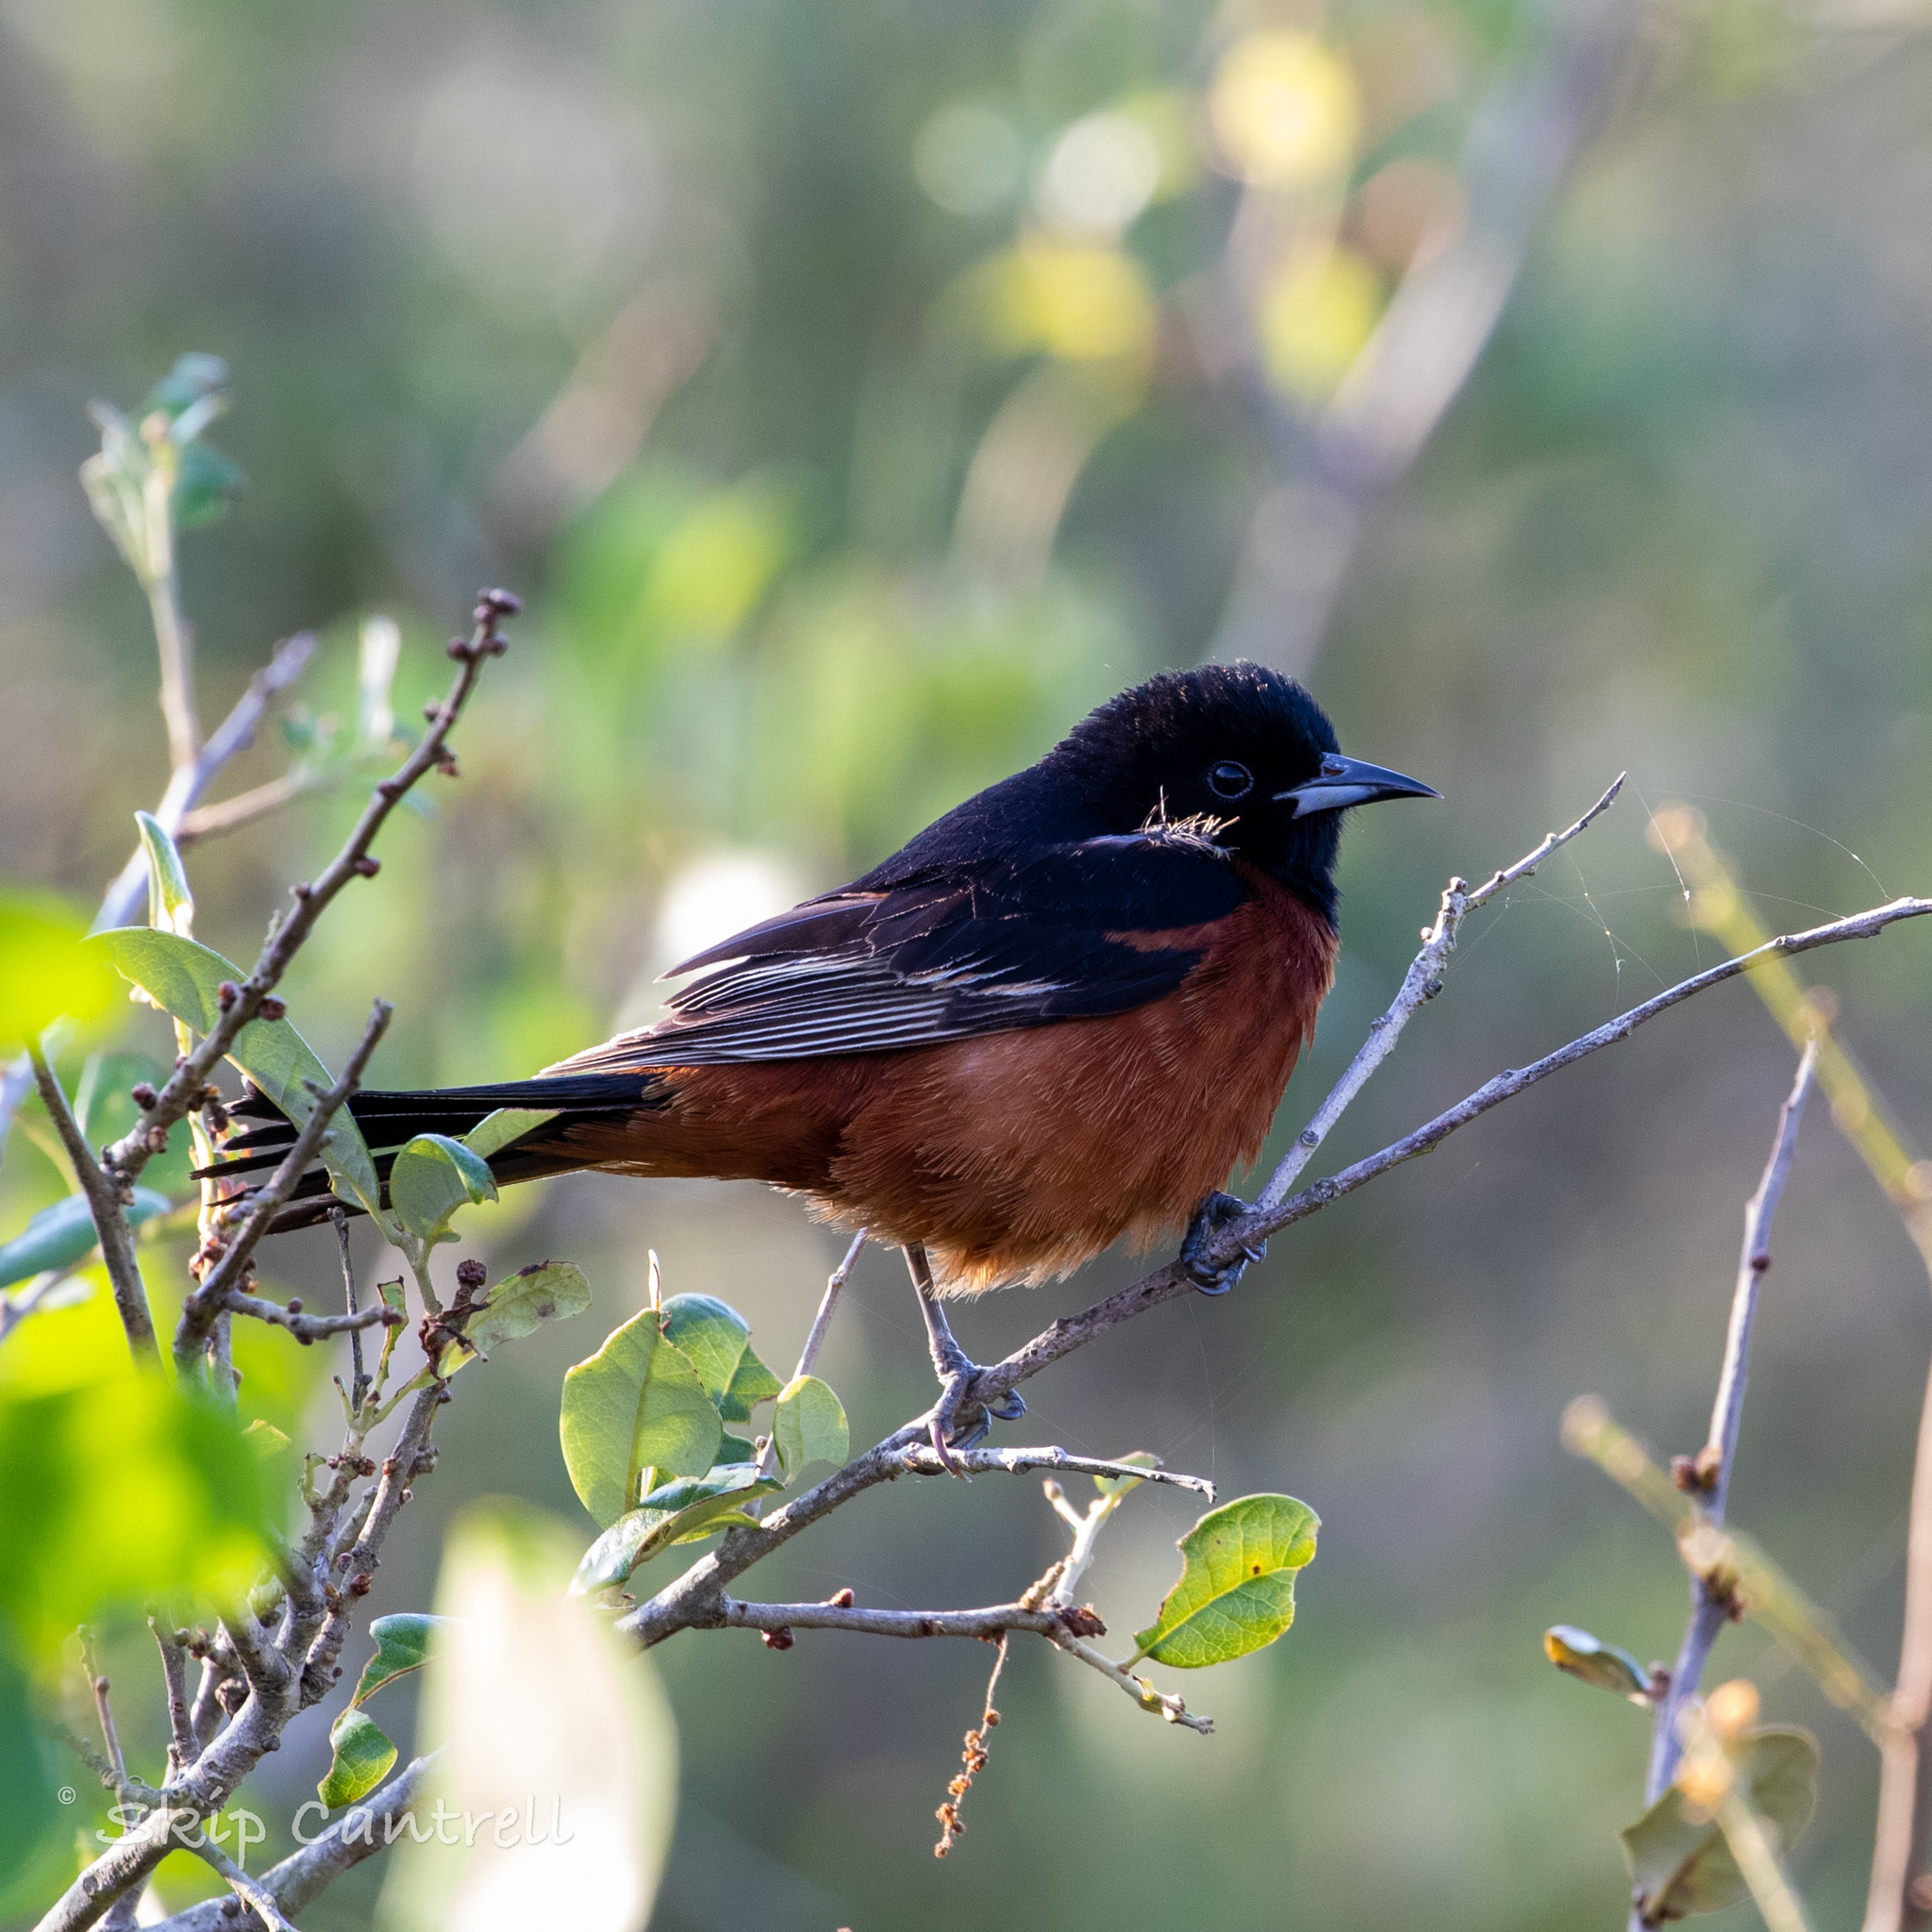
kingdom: Animalia
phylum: Chordata
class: Aves
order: Passeriformes
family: Icteridae
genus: Icterus
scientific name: Icterus spurius
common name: Orchard oriole
